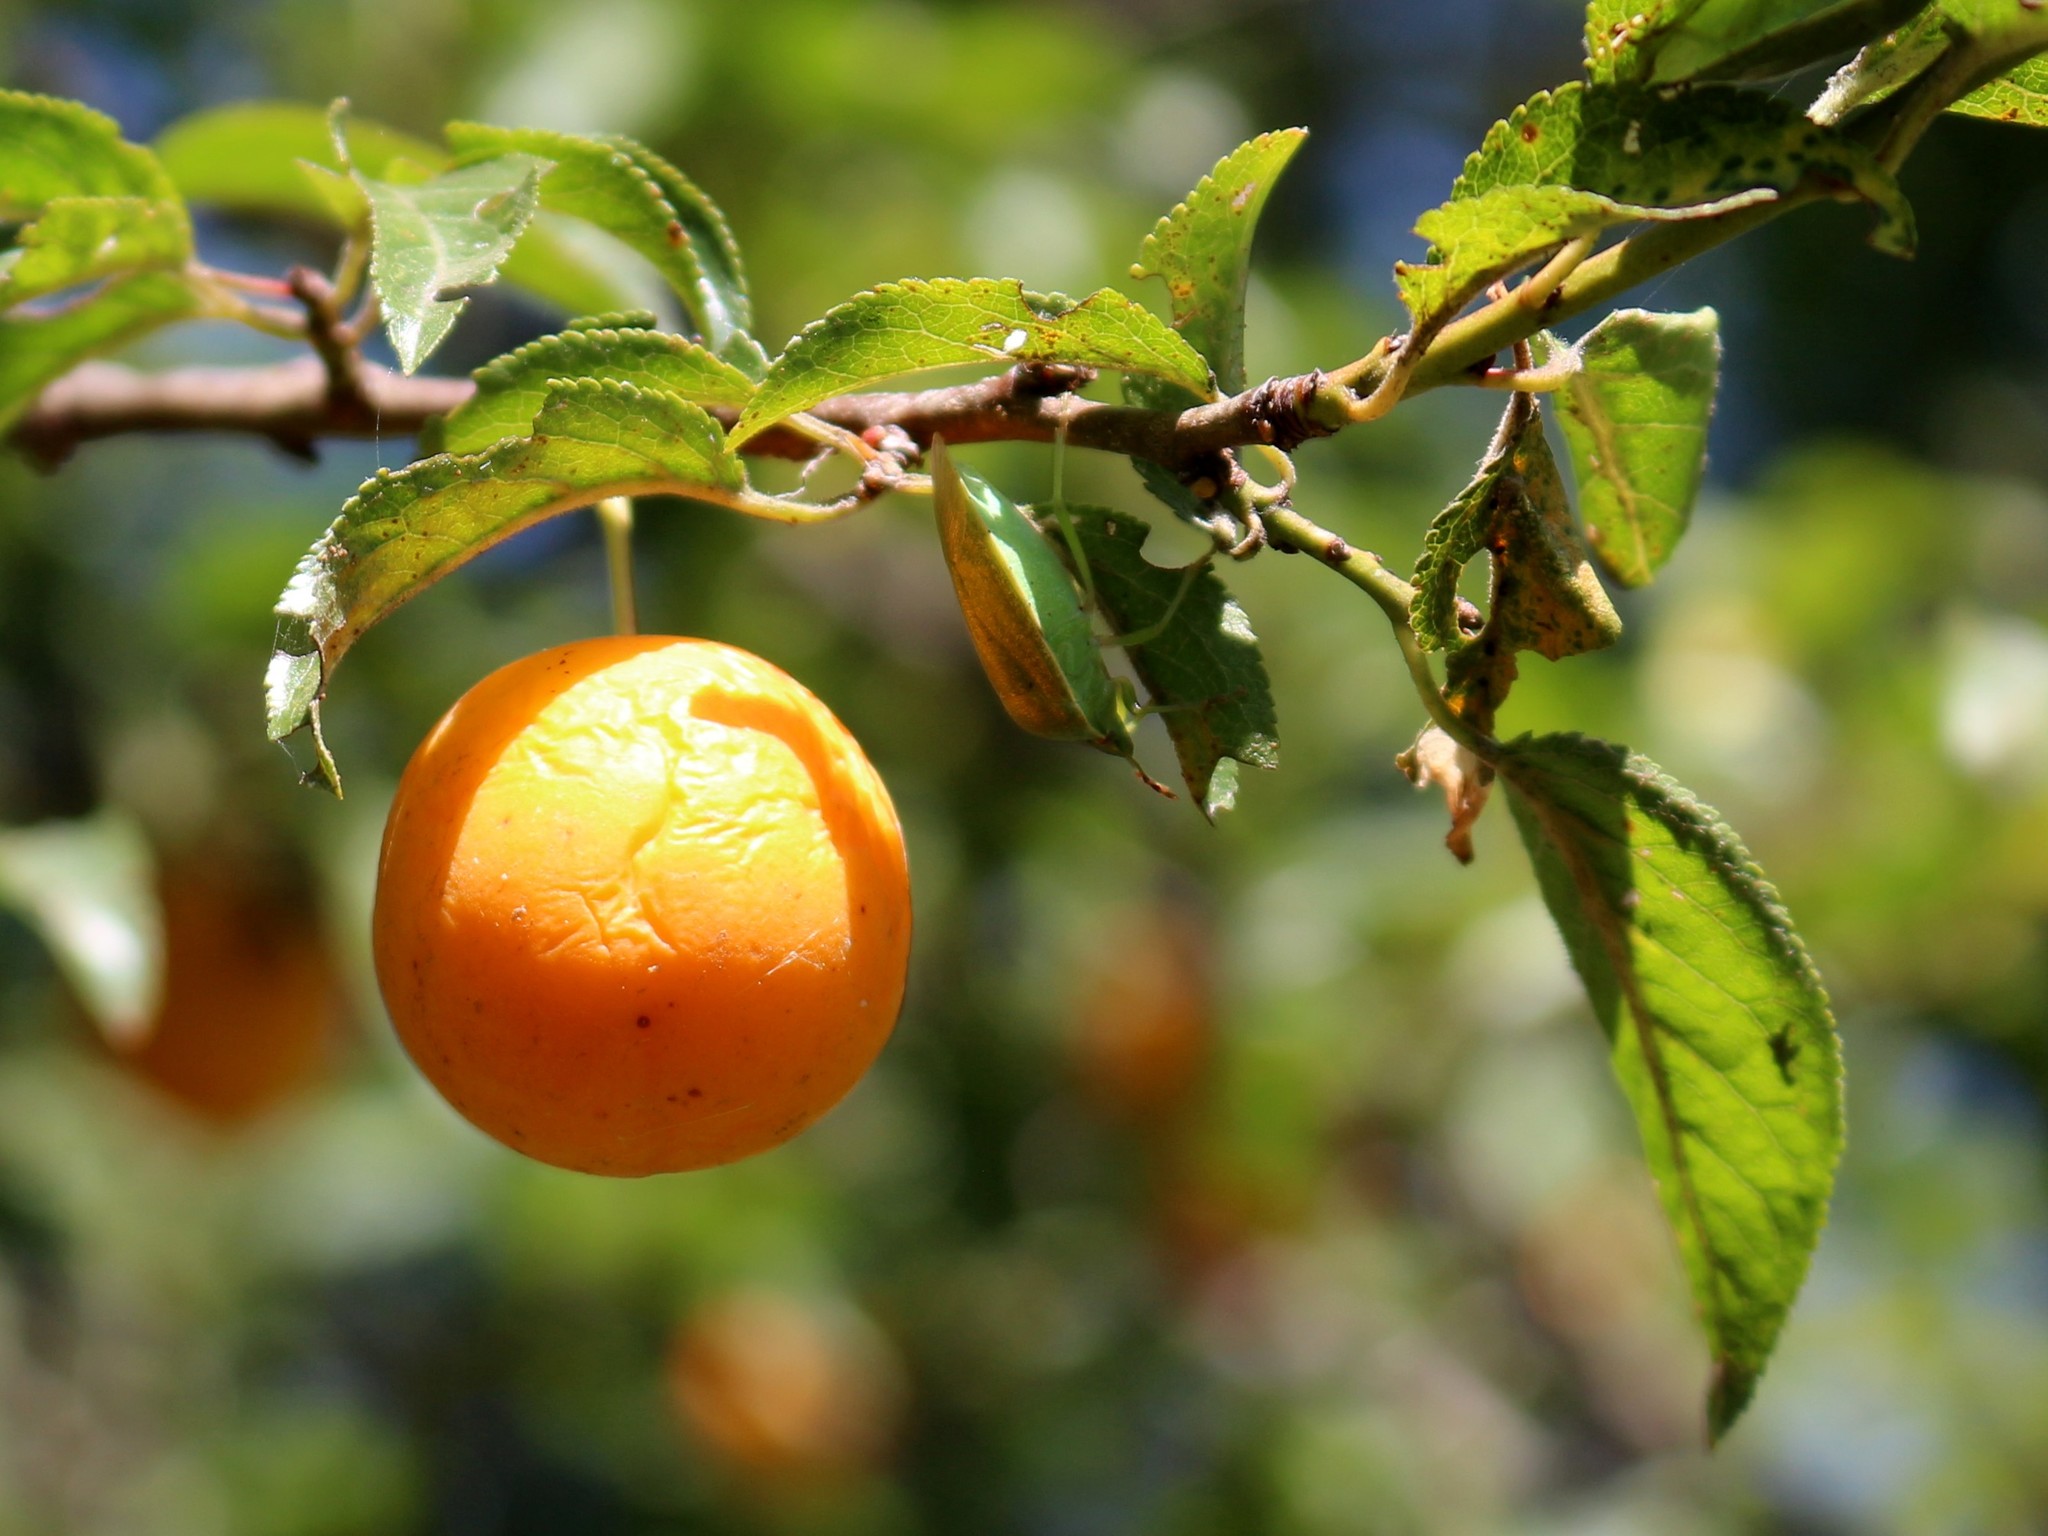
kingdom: Plantae
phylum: Tracheophyta
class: Magnoliopsida
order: Rosales
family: Rosaceae
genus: Prunus
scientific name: Prunus cerasifera
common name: Cherry plum
